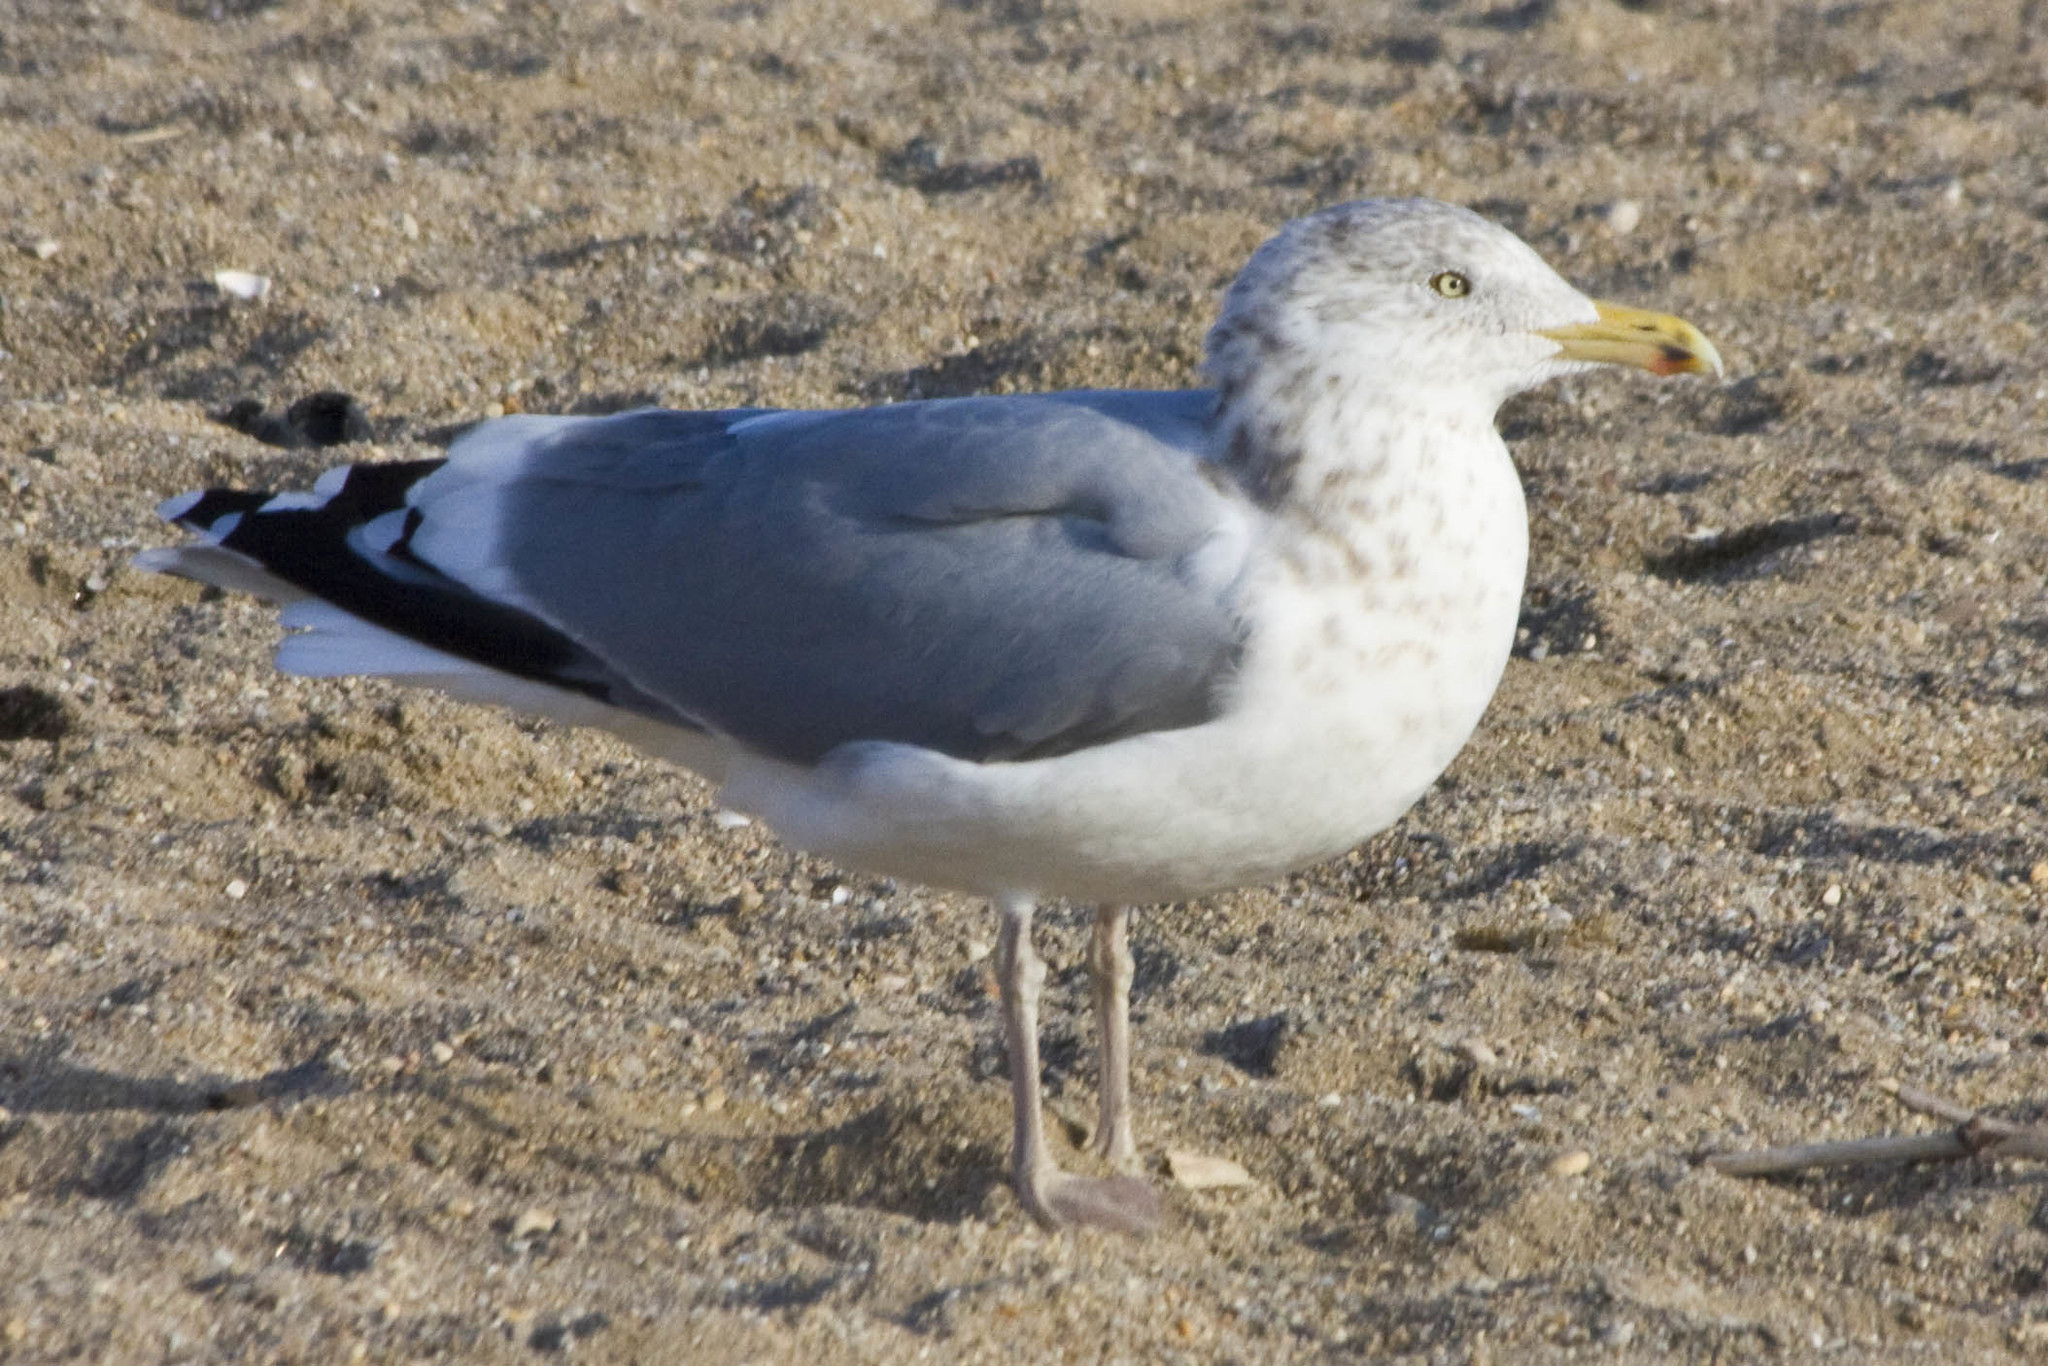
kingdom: Animalia
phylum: Chordata
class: Aves
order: Charadriiformes
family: Laridae
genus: Larus
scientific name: Larus argentatus
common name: Herring gull
